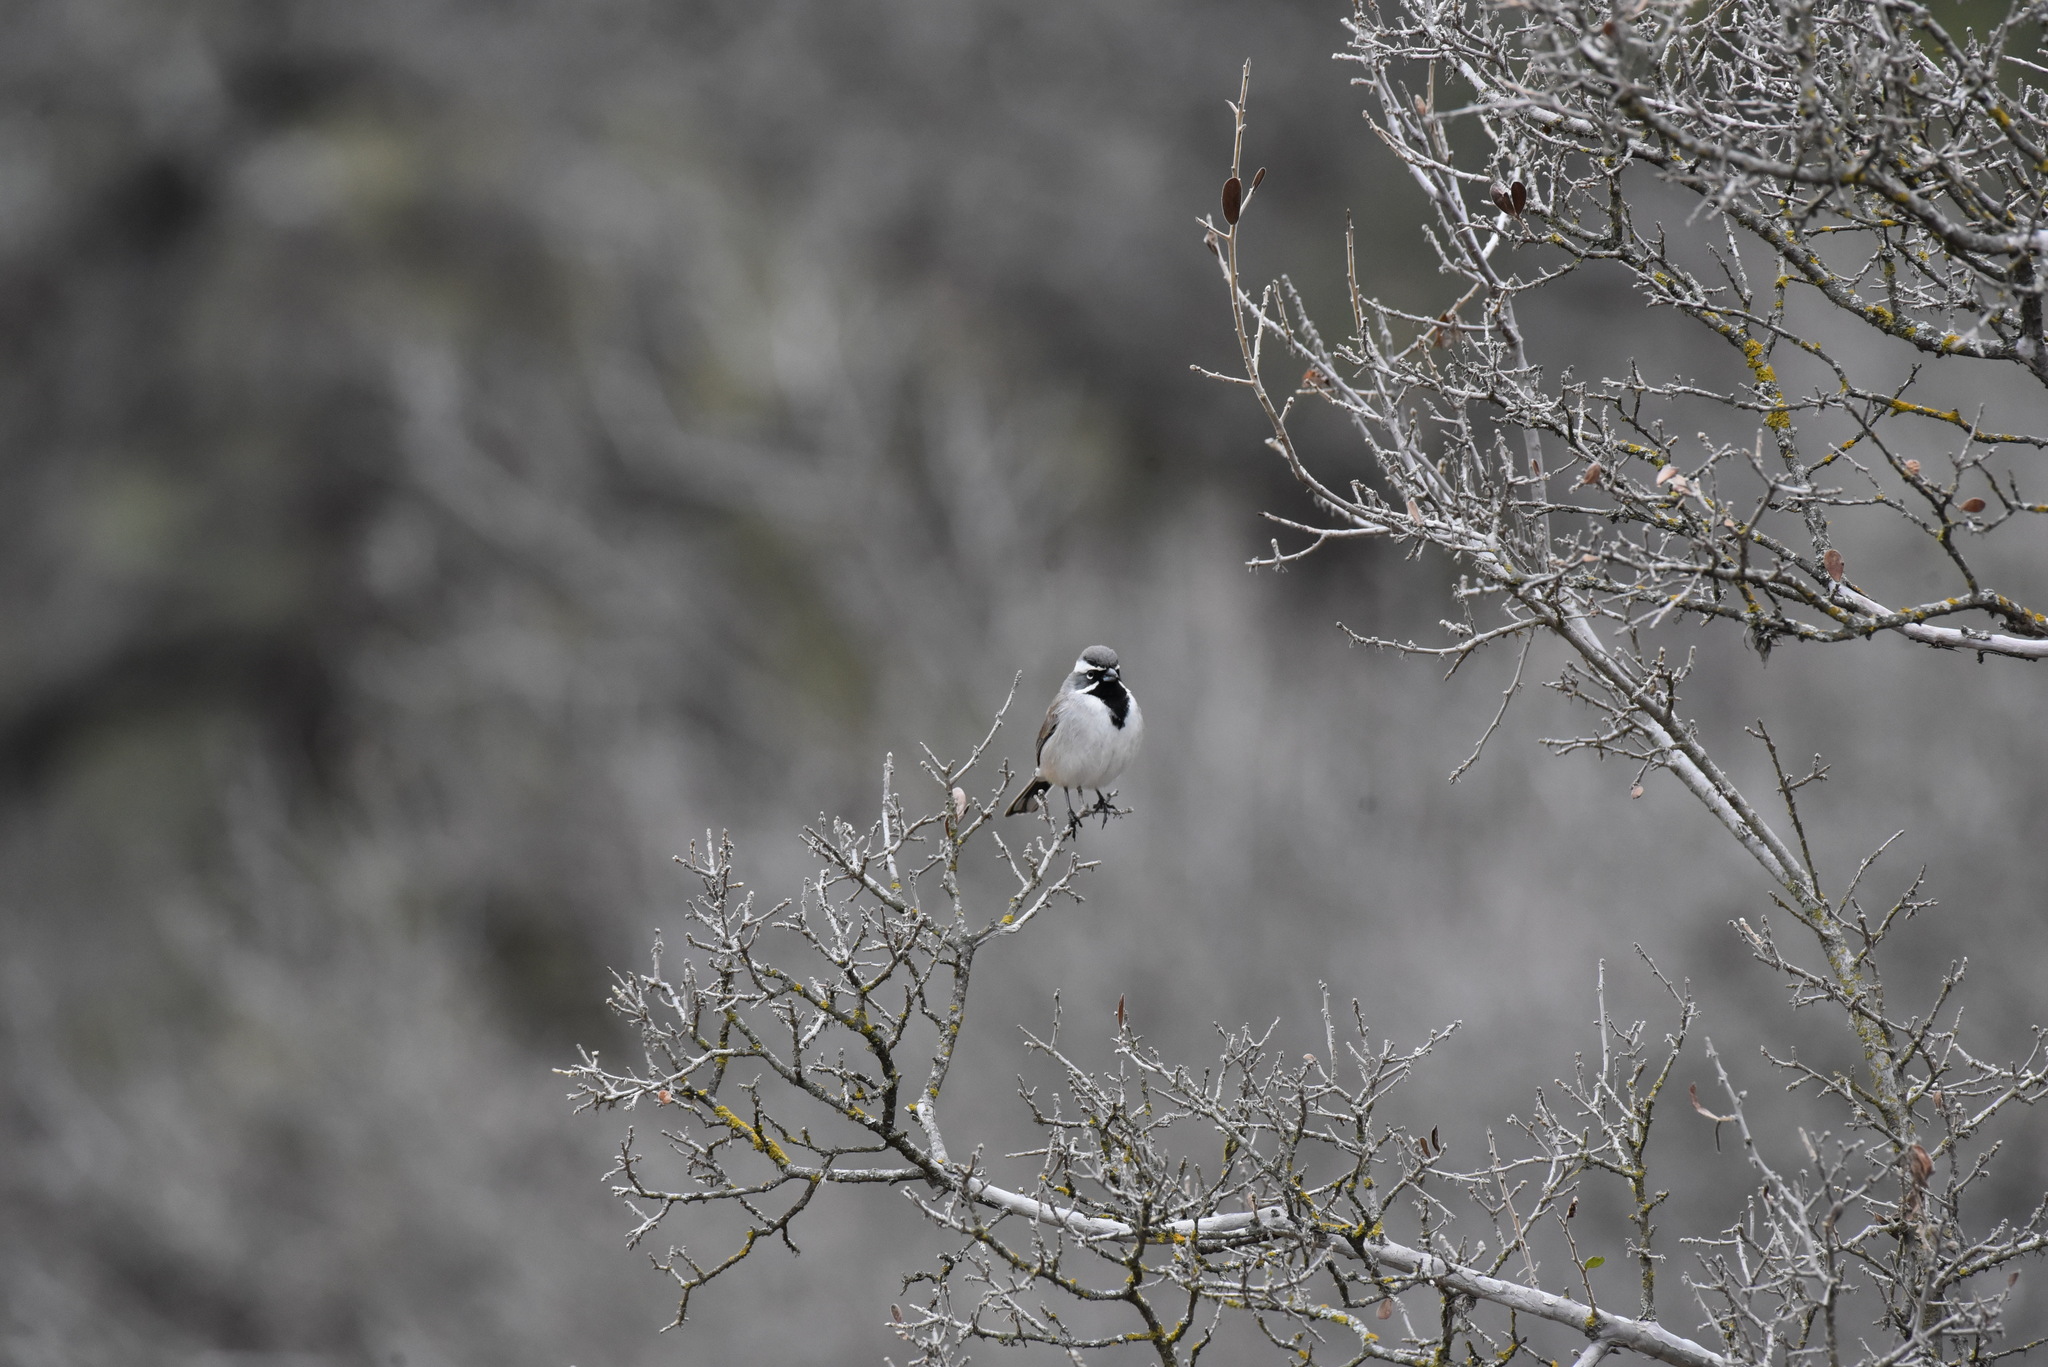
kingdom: Animalia
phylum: Chordata
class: Aves
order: Passeriformes
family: Passerellidae
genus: Amphispiza
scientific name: Amphispiza bilineata
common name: Black-throated sparrow
